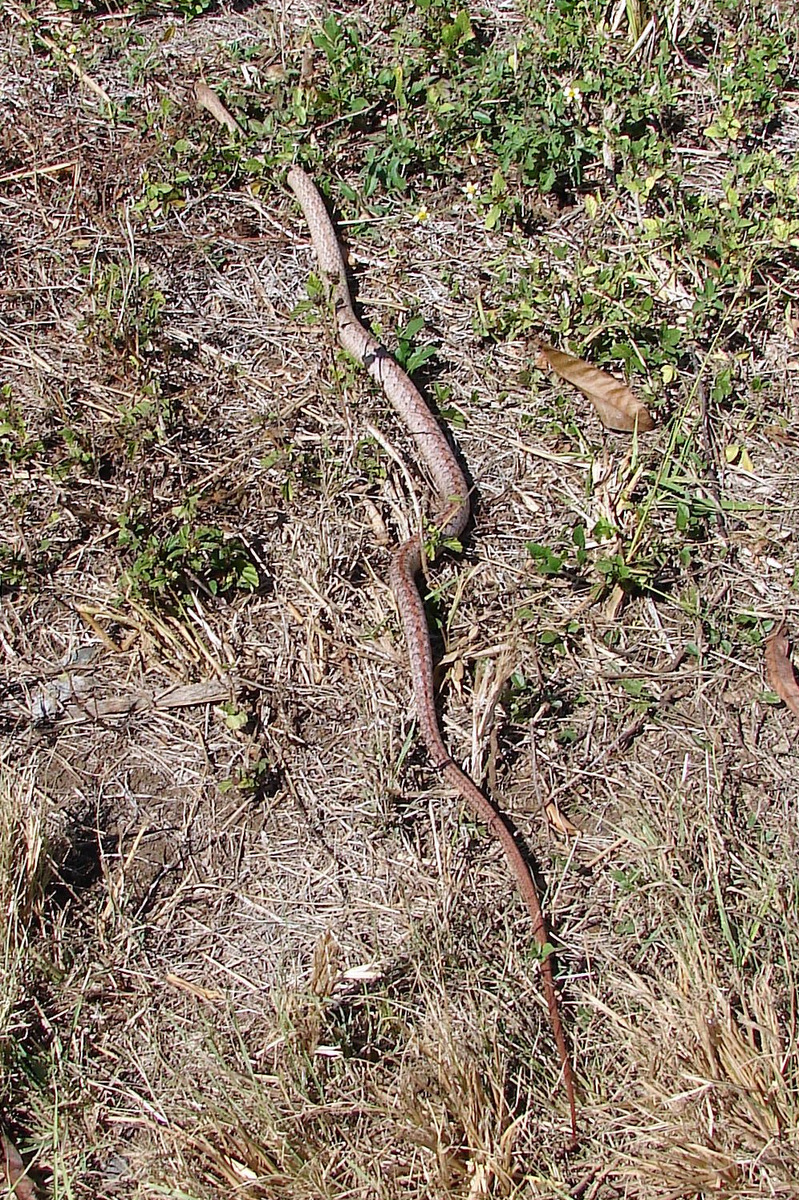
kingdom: Animalia
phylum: Chordata
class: Squamata
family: Pseudoxyrhophiidae
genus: Ithycyphus
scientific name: Ithycyphus miniatus
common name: Tiny night snake
